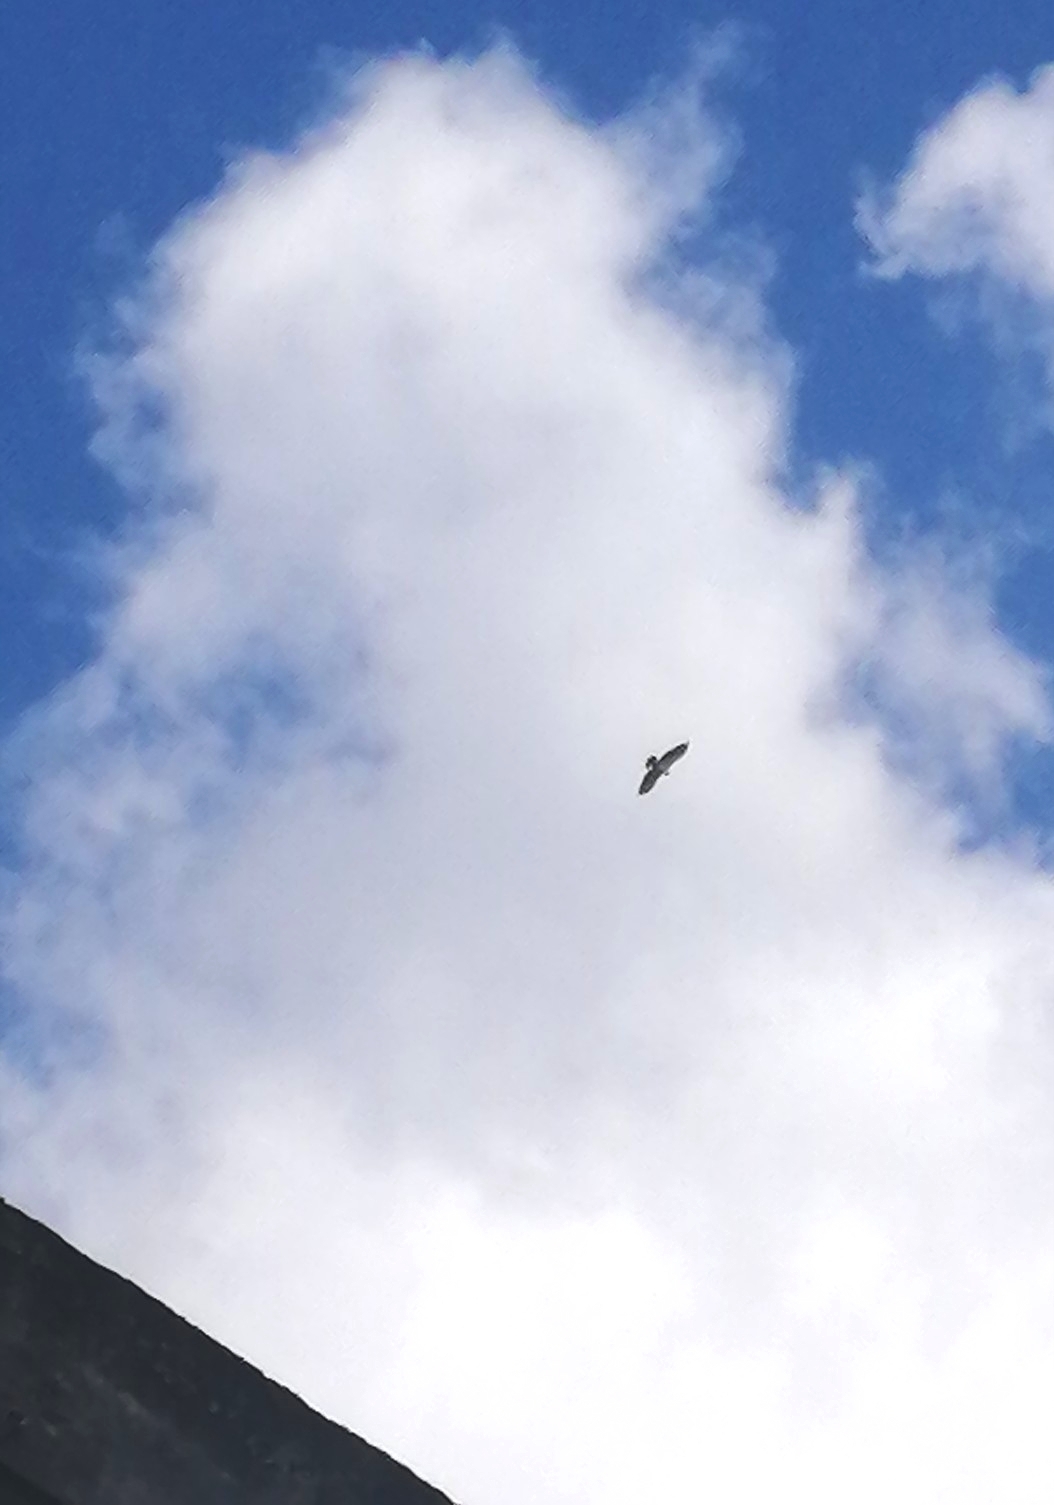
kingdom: Animalia
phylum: Chordata
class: Aves
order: Accipitriformes
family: Accipitridae
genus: Buteo
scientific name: Buteo brachyurus
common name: Short-tailed hawk
